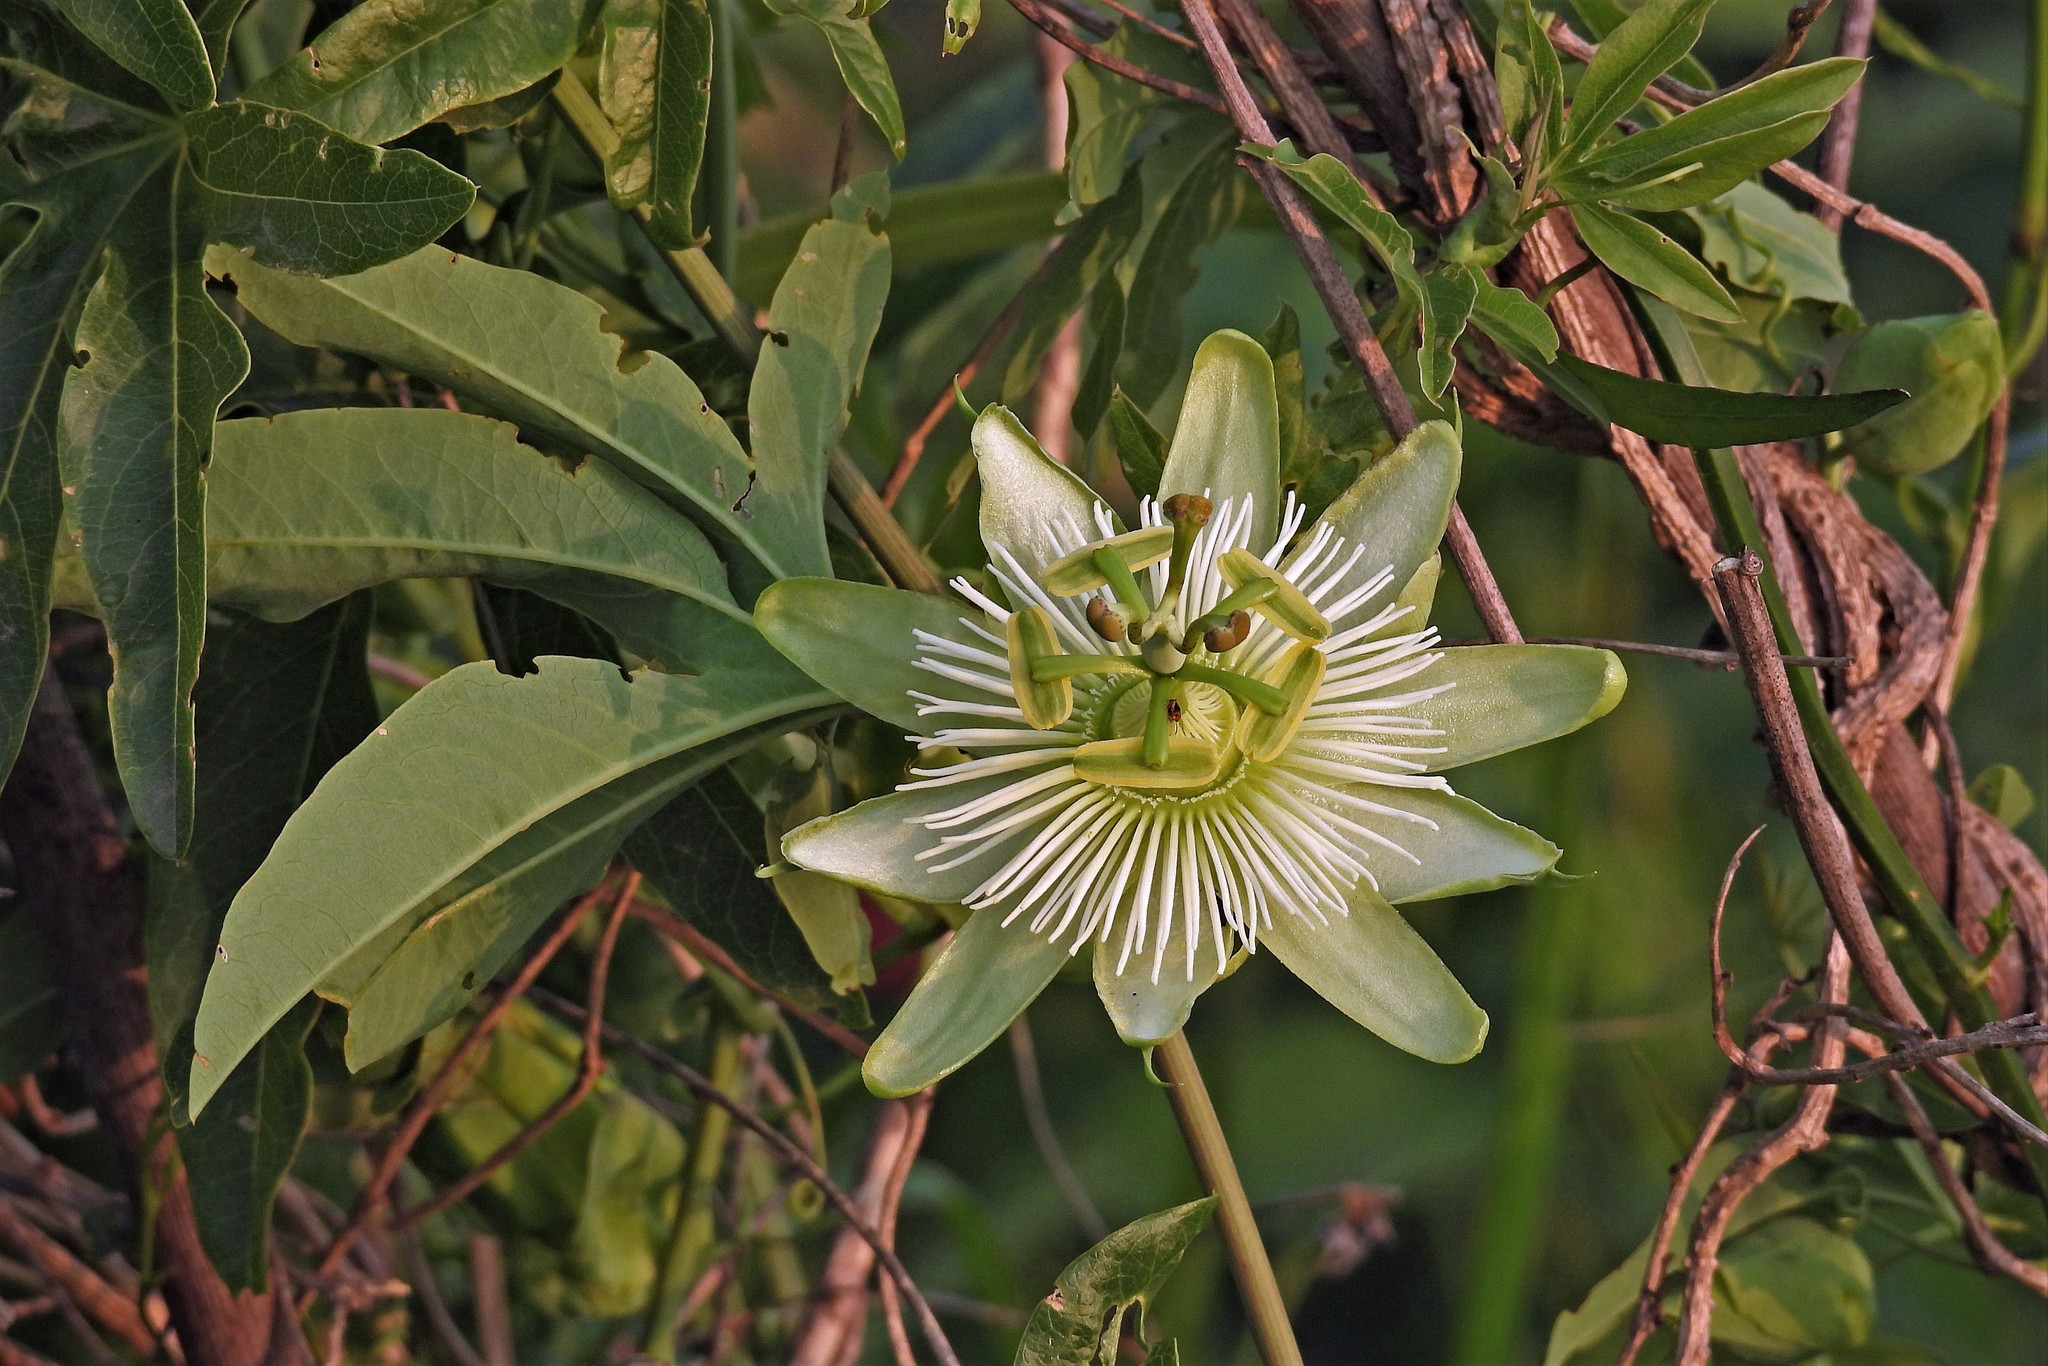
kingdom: Plantae
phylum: Tracheophyta
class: Magnoliopsida
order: Malpighiales
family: Passifloraceae
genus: Passiflora
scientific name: Passiflora caerulea
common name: Blue passionflower
